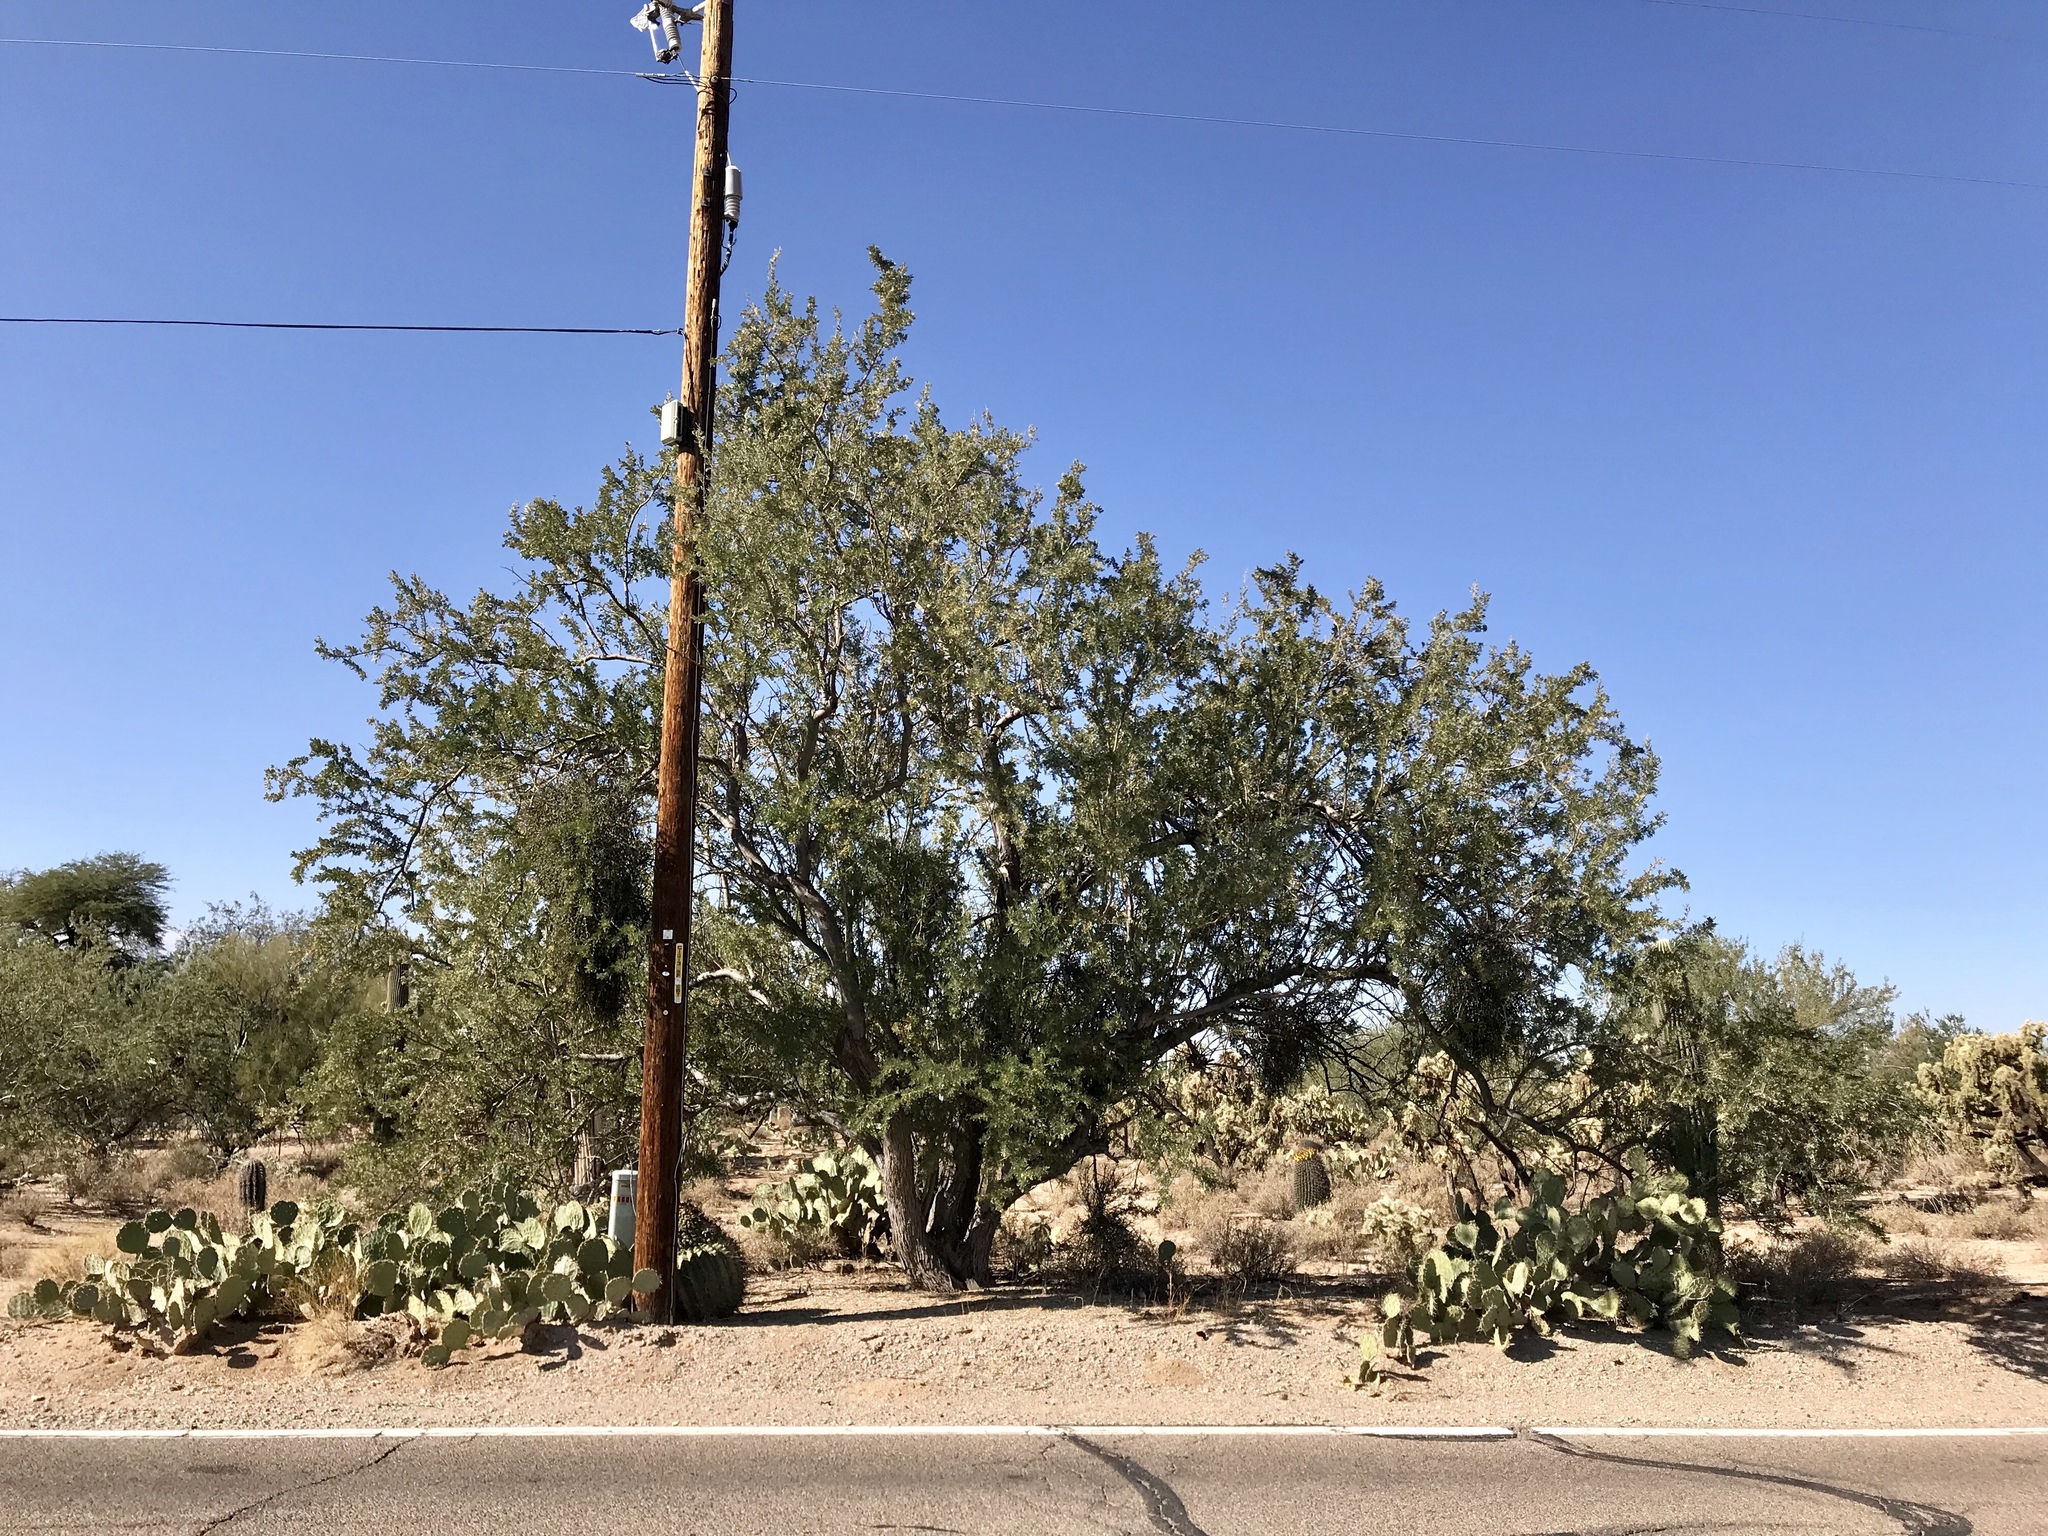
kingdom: Plantae
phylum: Tracheophyta
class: Magnoliopsida
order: Fabales
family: Fabaceae
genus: Olneya
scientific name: Olneya tesota
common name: Desert ironwood
